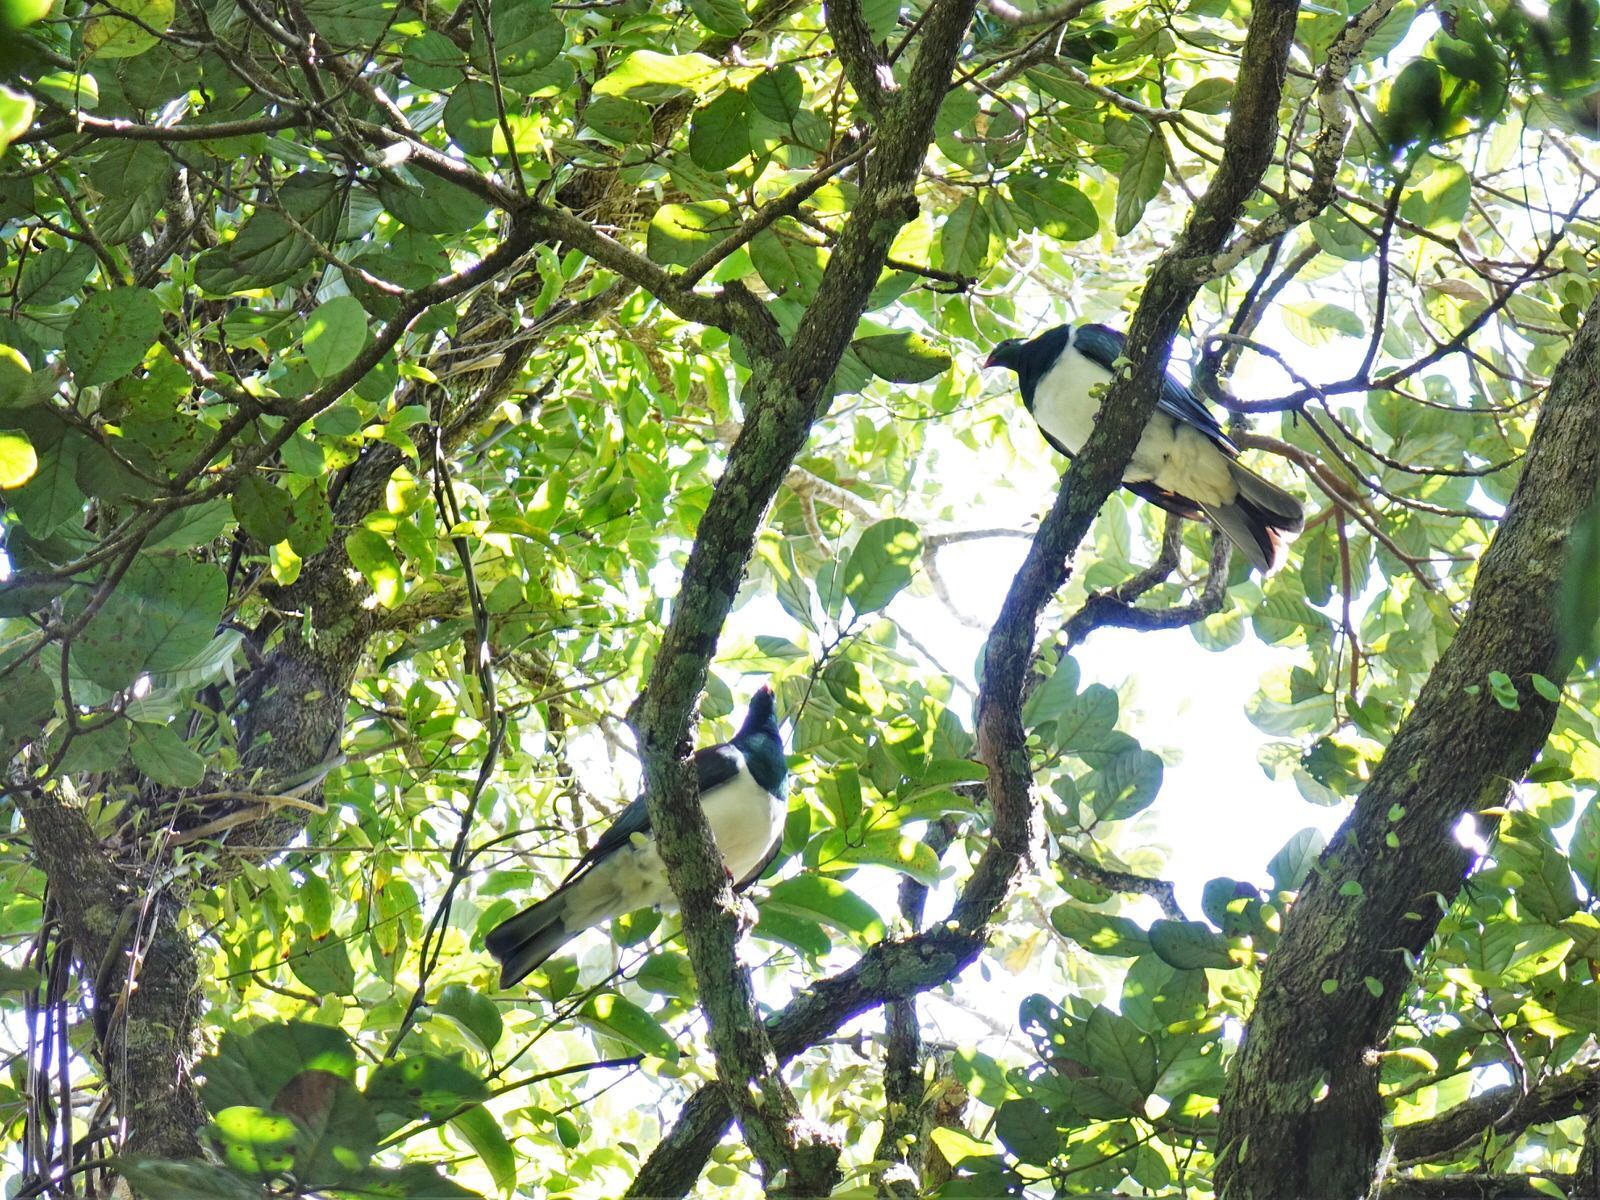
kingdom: Animalia
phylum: Chordata
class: Aves
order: Columbiformes
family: Columbidae
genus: Hemiphaga
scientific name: Hemiphaga novaeseelandiae
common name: New zealand pigeon
